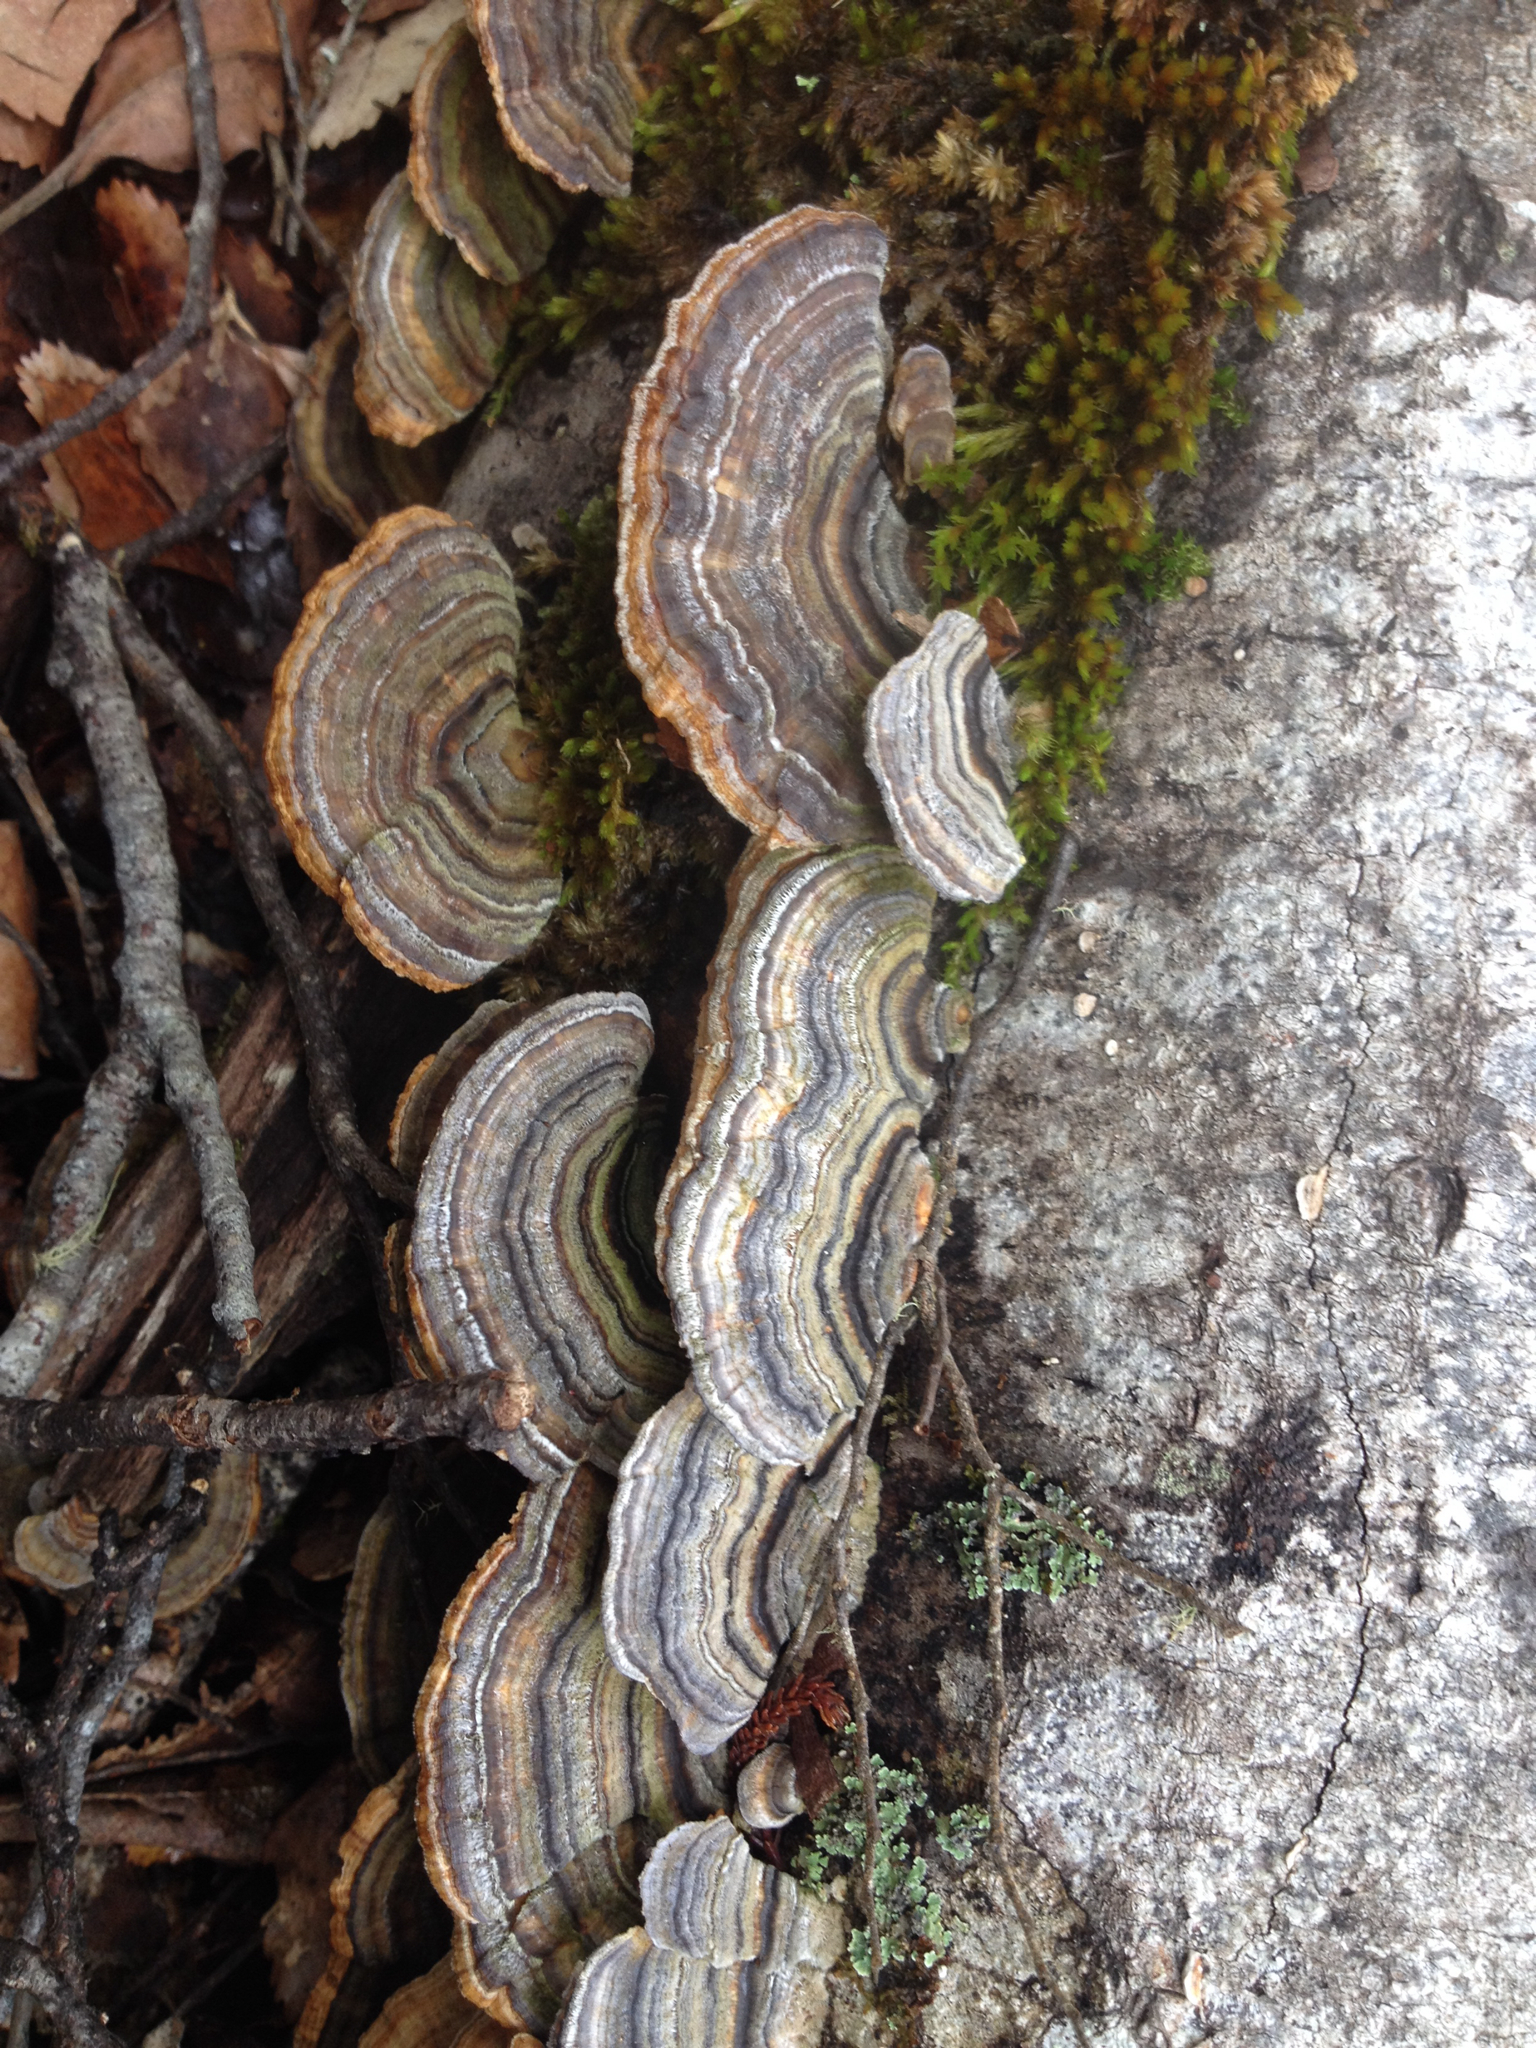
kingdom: Fungi
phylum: Basidiomycota
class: Agaricomycetes
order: Polyporales
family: Polyporaceae
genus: Trametes
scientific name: Trametes versicolor
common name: Turkeytail
